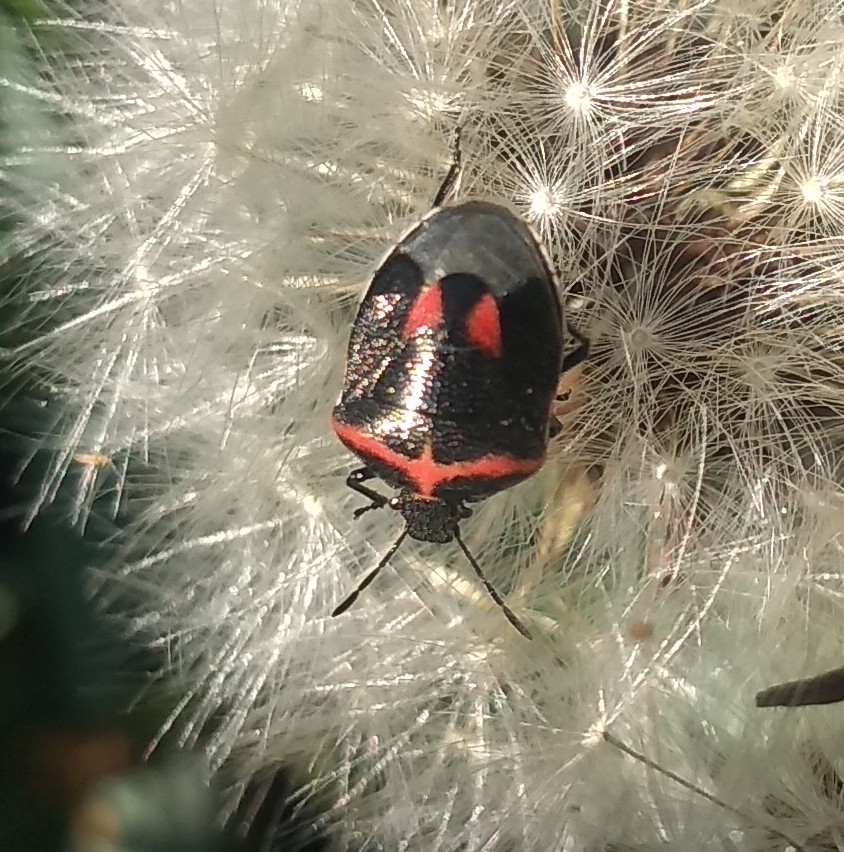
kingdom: Animalia
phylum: Arthropoda
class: Insecta
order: Hemiptera
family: Pentatomidae
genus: Cosmopepla
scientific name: Cosmopepla lintneriana
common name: Twice-stabbed stink bug
